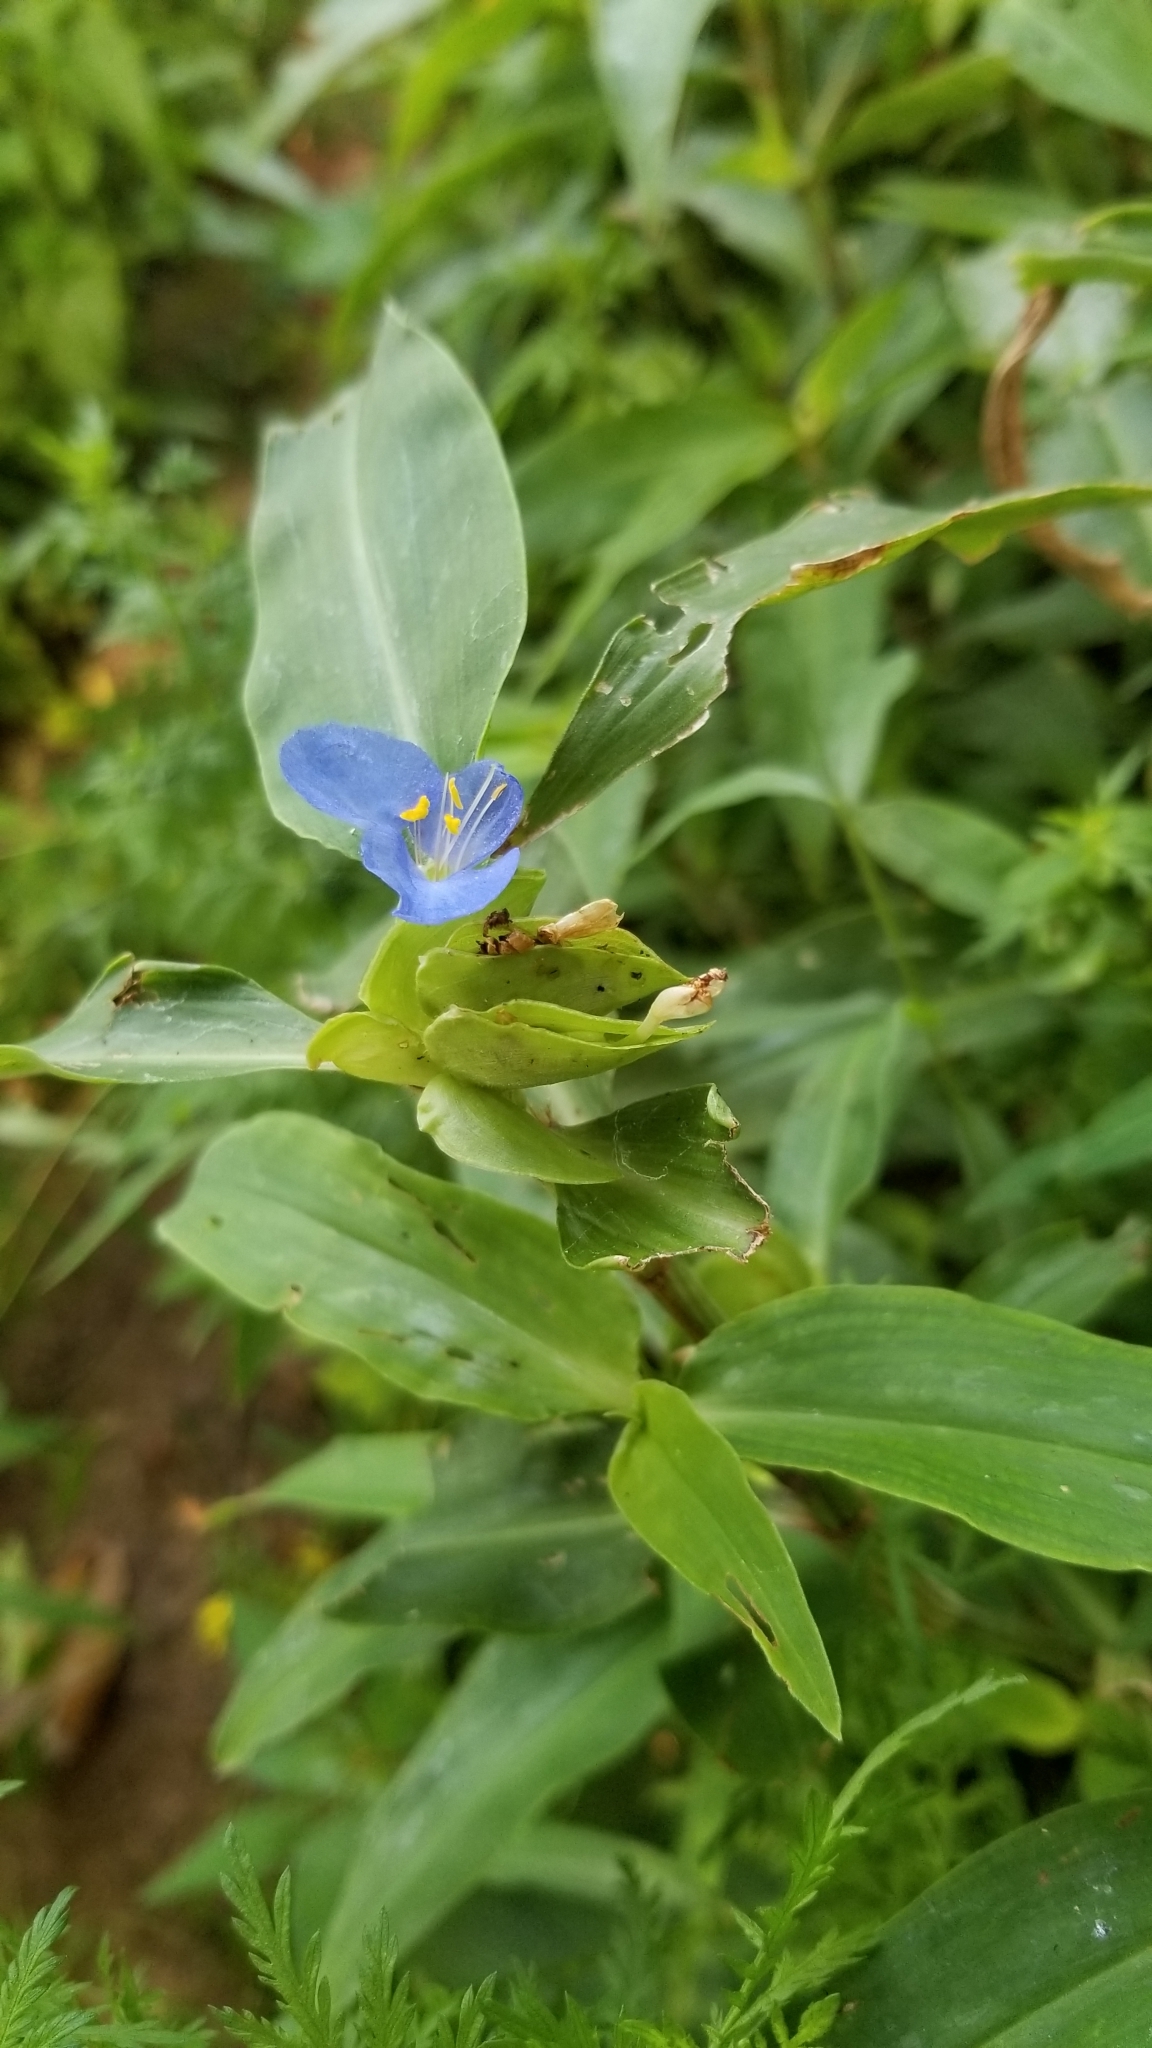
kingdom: Plantae
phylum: Tracheophyta
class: Liliopsida
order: Commelinales
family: Commelinaceae
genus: Commelina
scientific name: Commelina virginica
